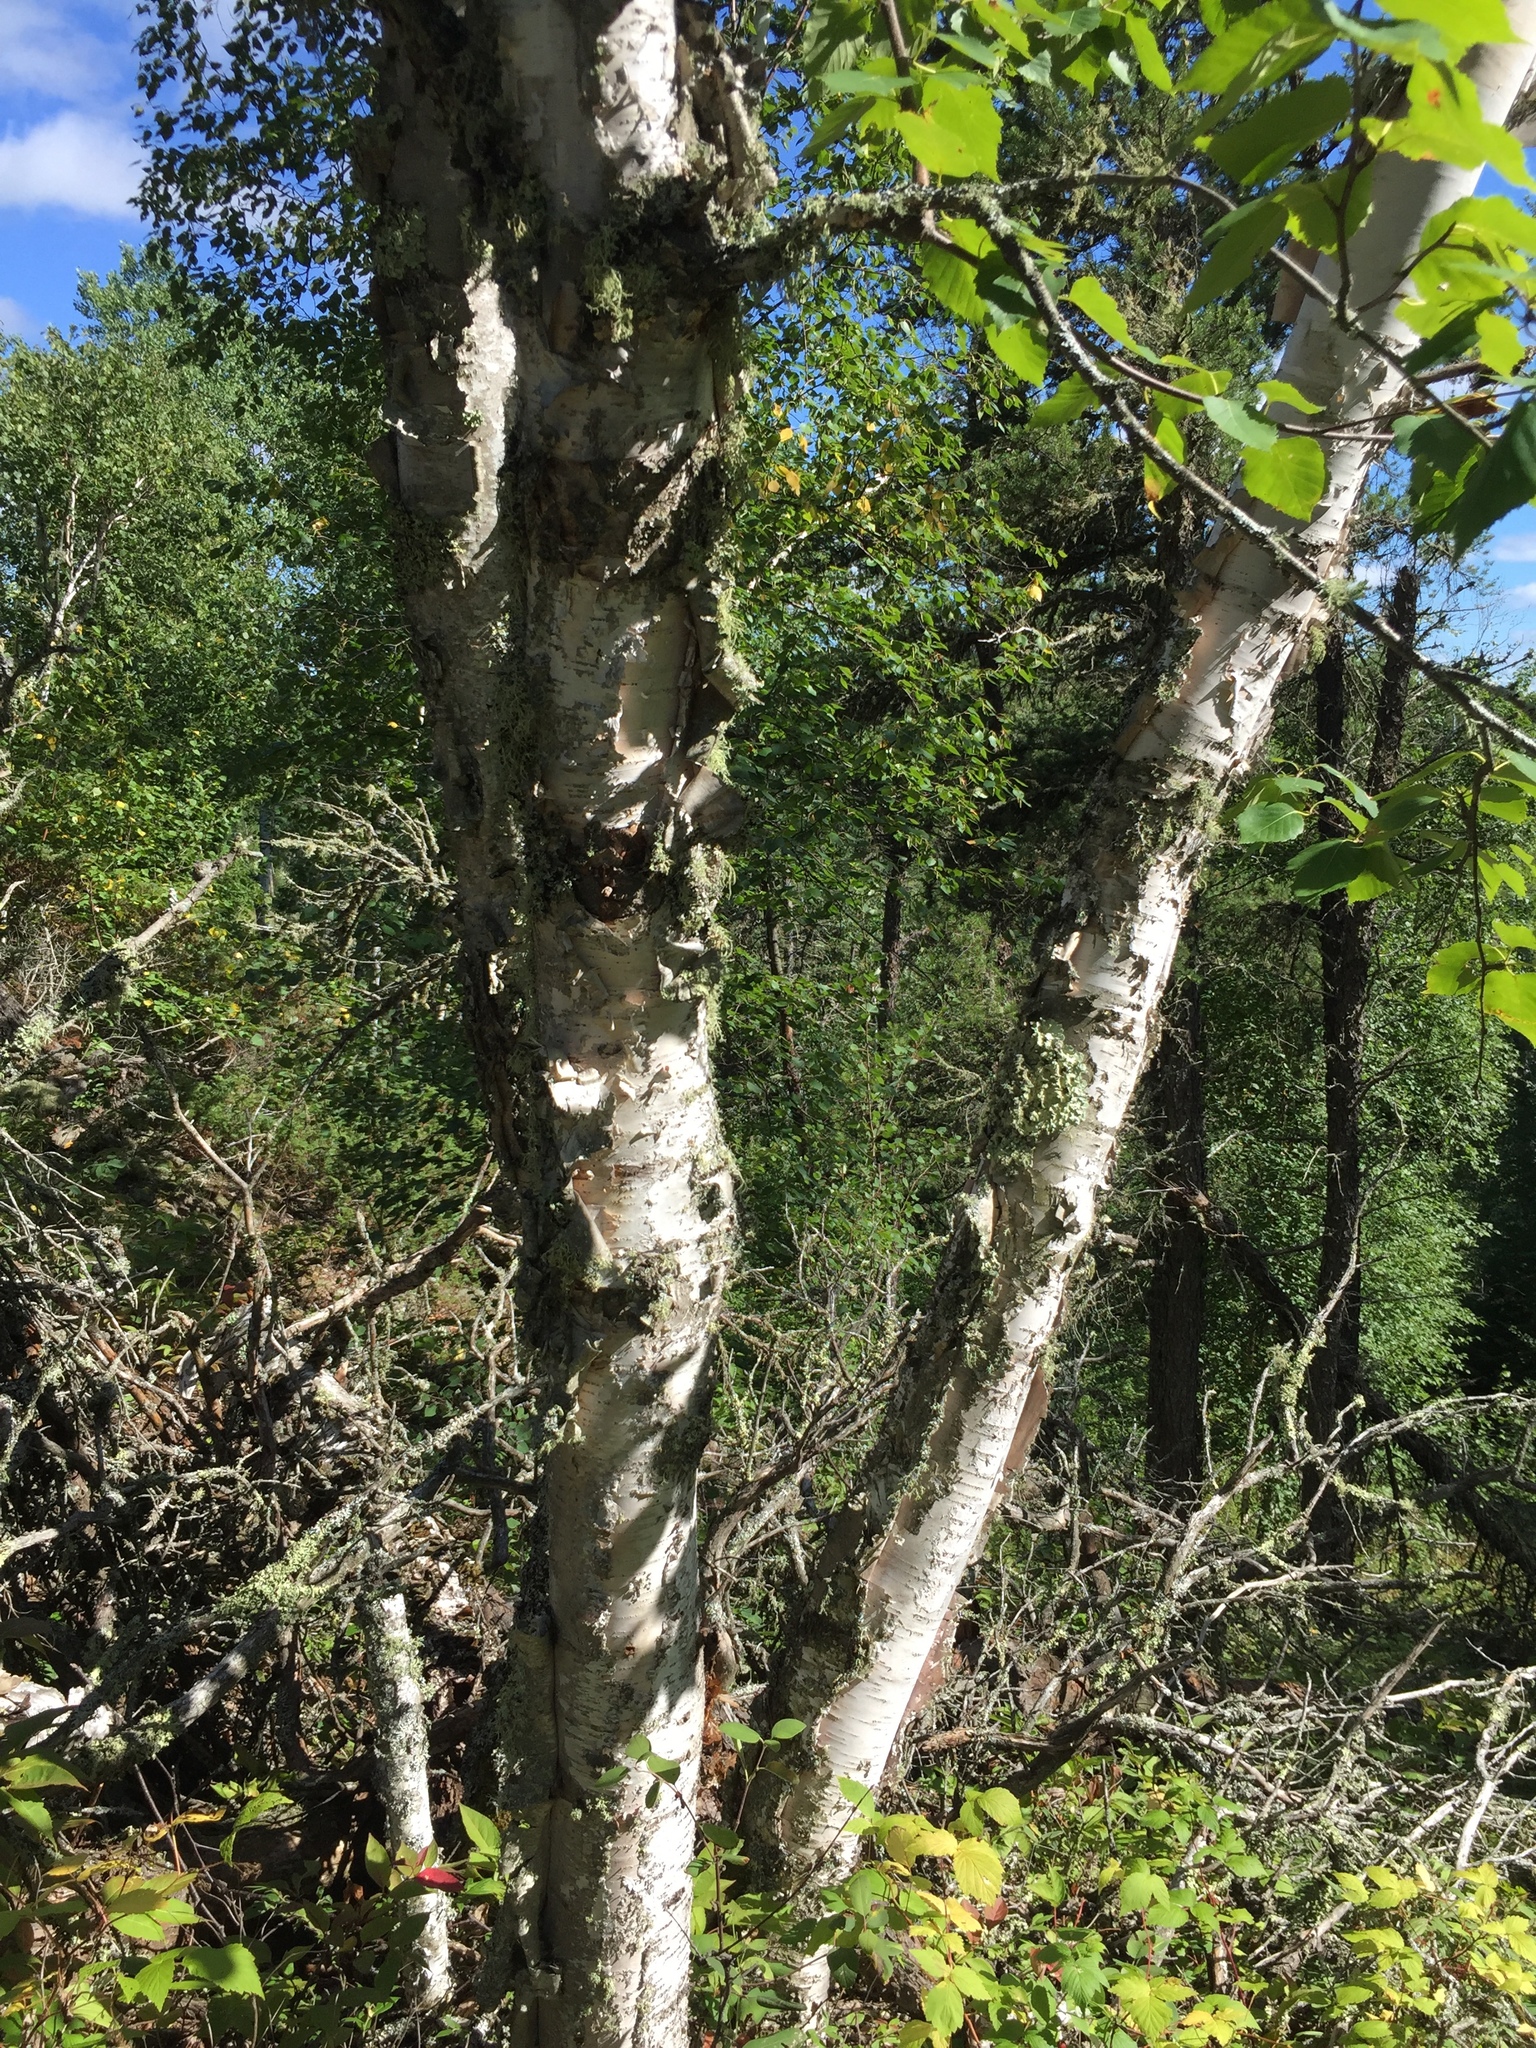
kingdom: Plantae
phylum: Tracheophyta
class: Magnoliopsida
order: Fagales
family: Betulaceae
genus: Betula
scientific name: Betula papyrifera
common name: Paper birch
